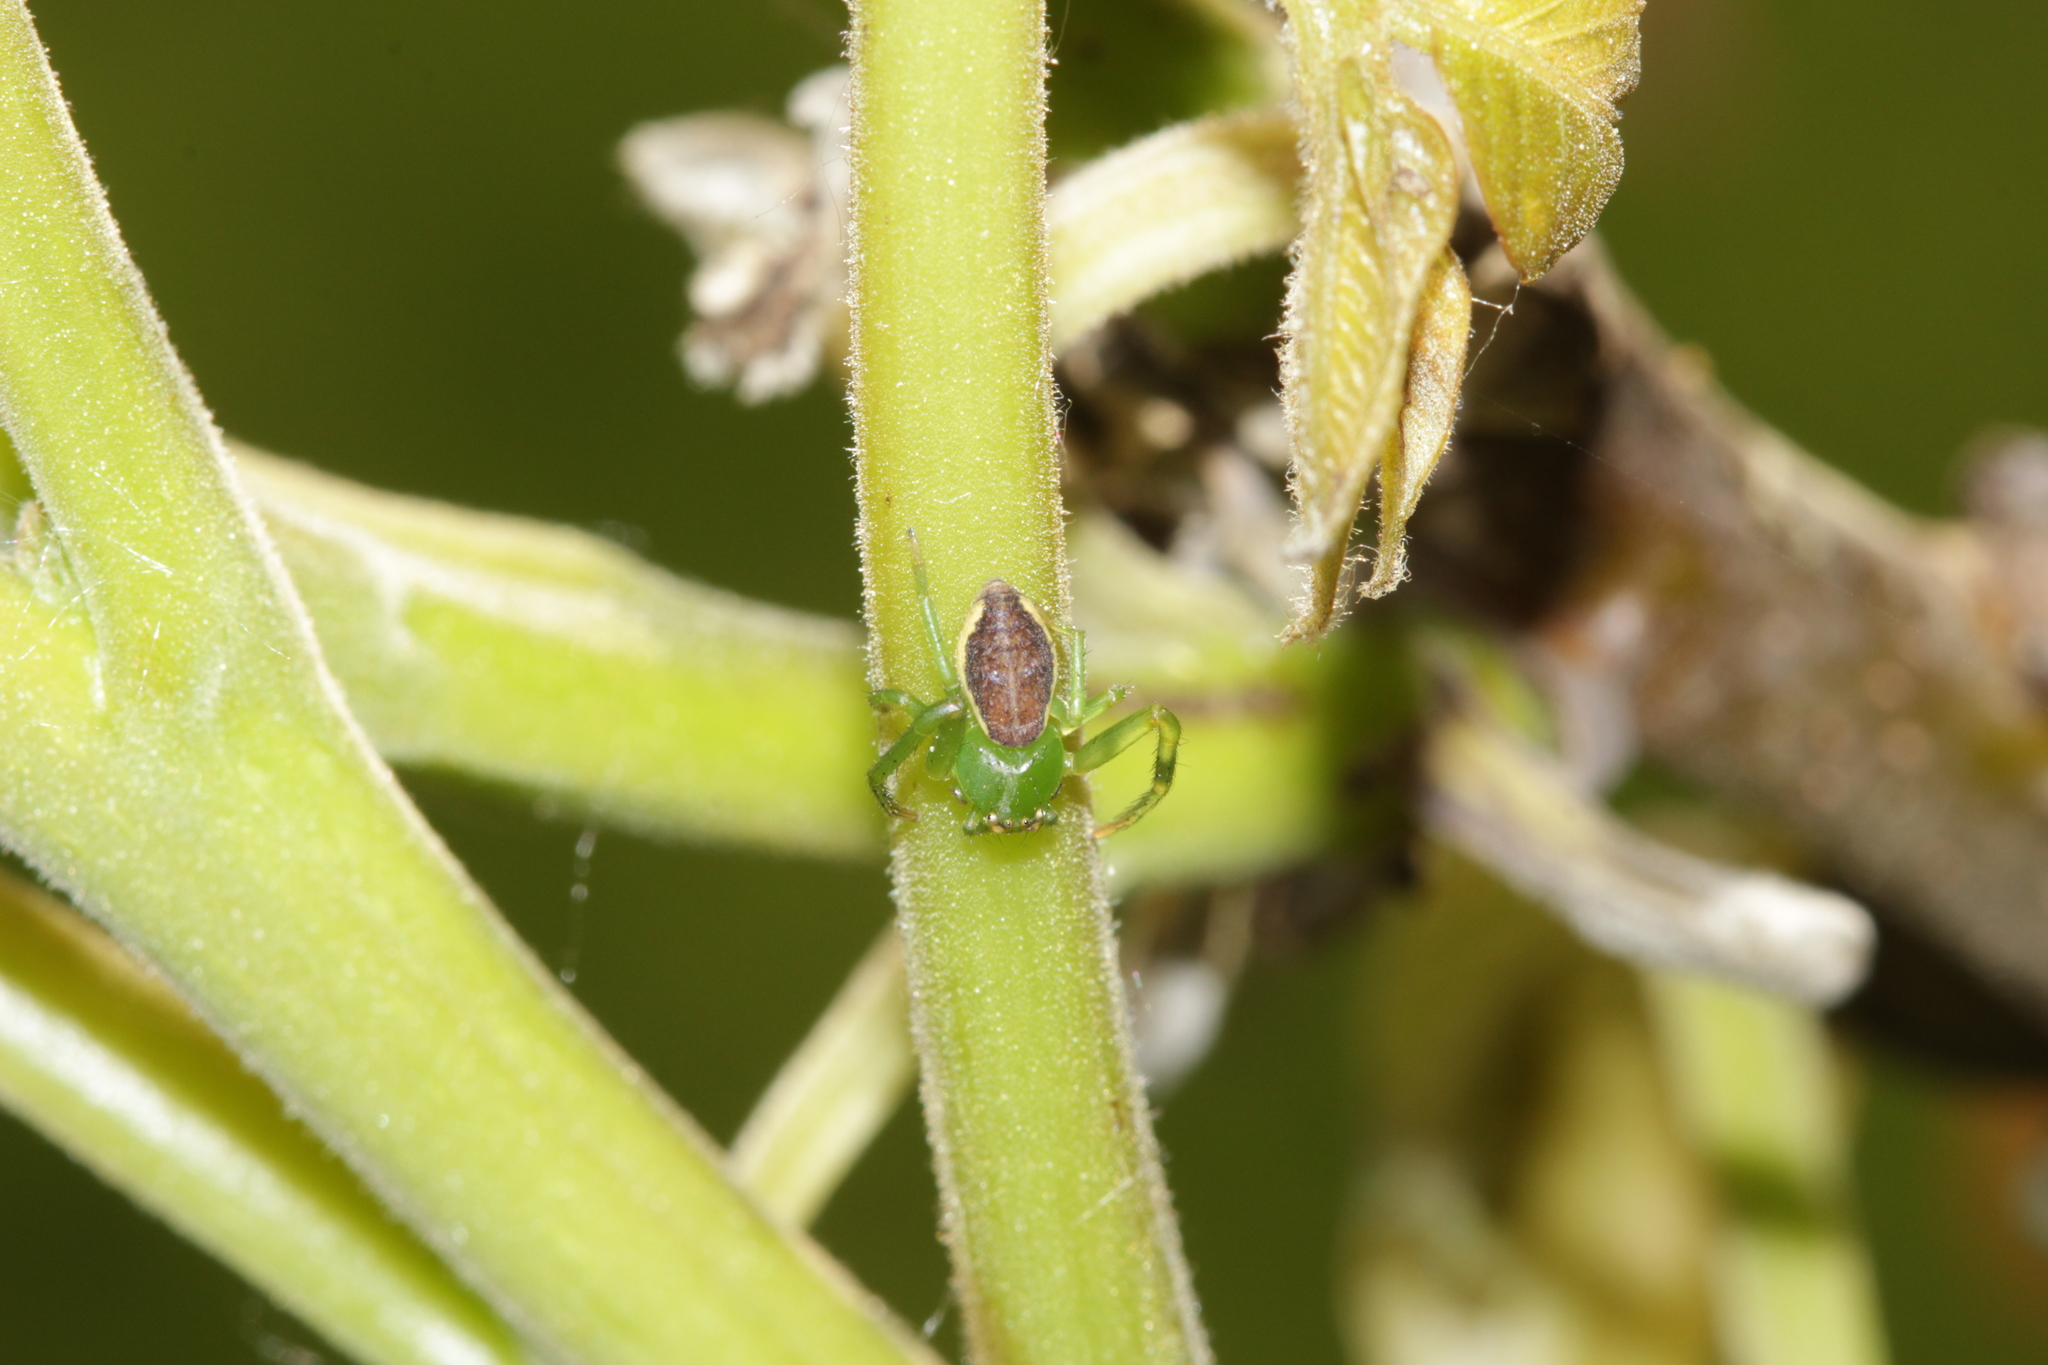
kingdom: Animalia
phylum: Arthropoda
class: Arachnida
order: Araneae
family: Thomisidae
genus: Diaea
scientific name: Diaea dorsata
